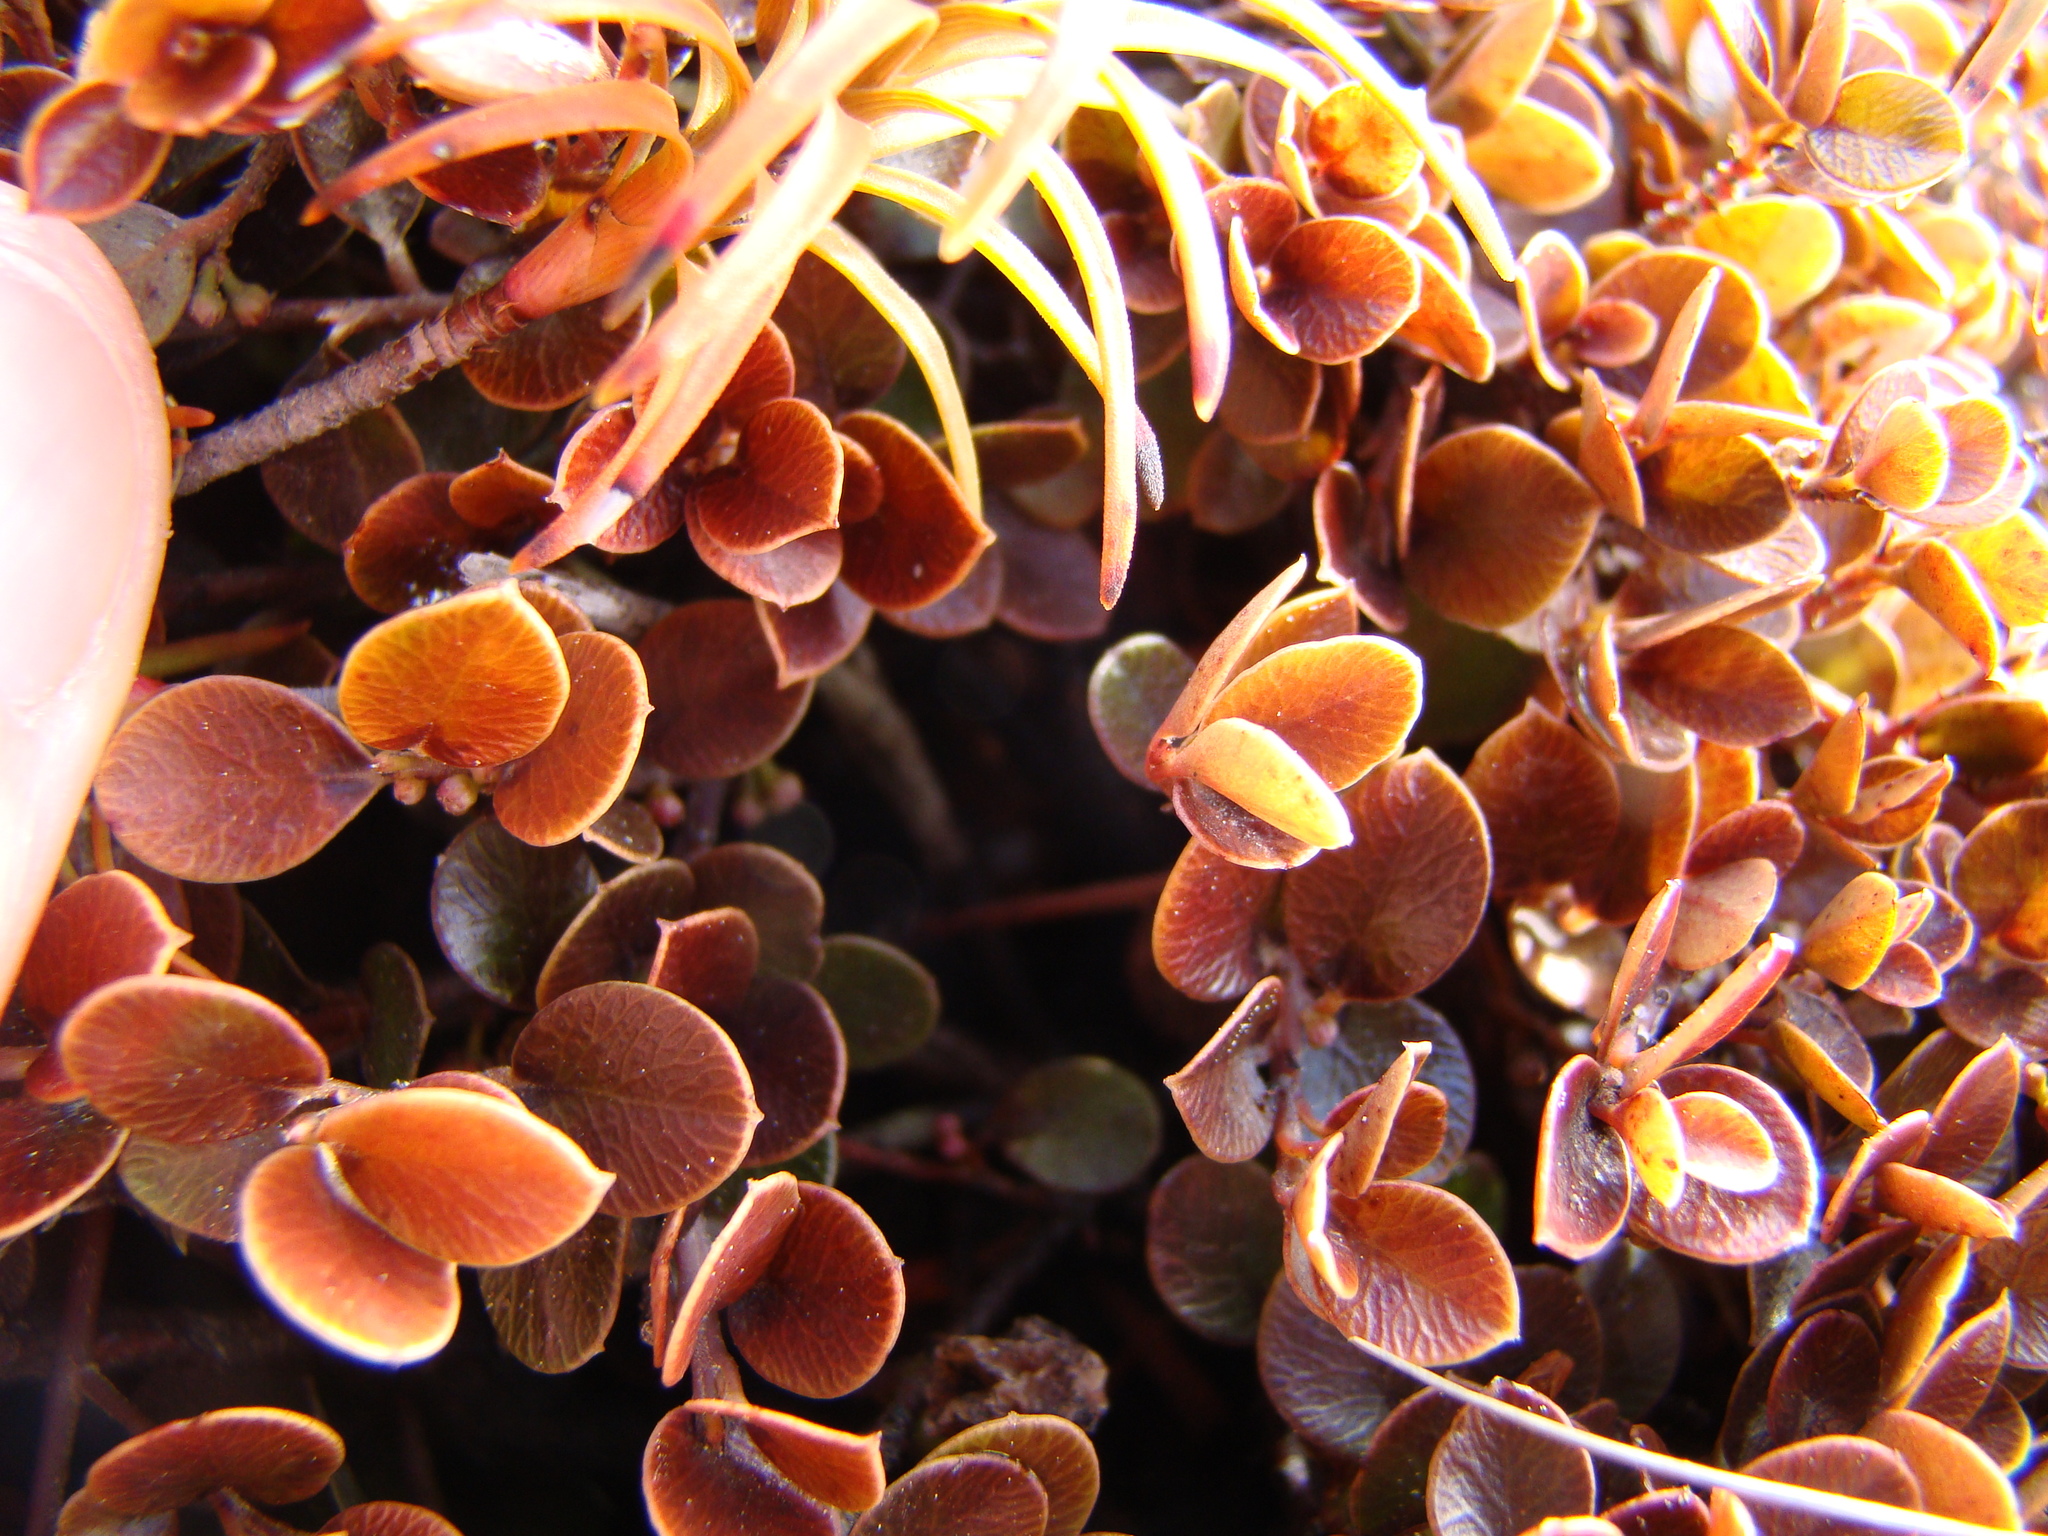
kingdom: Plantae
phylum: Tracheophyta
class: Magnoliopsida
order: Ericales
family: Primulaceae
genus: Myrsine
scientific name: Myrsine nummularia
